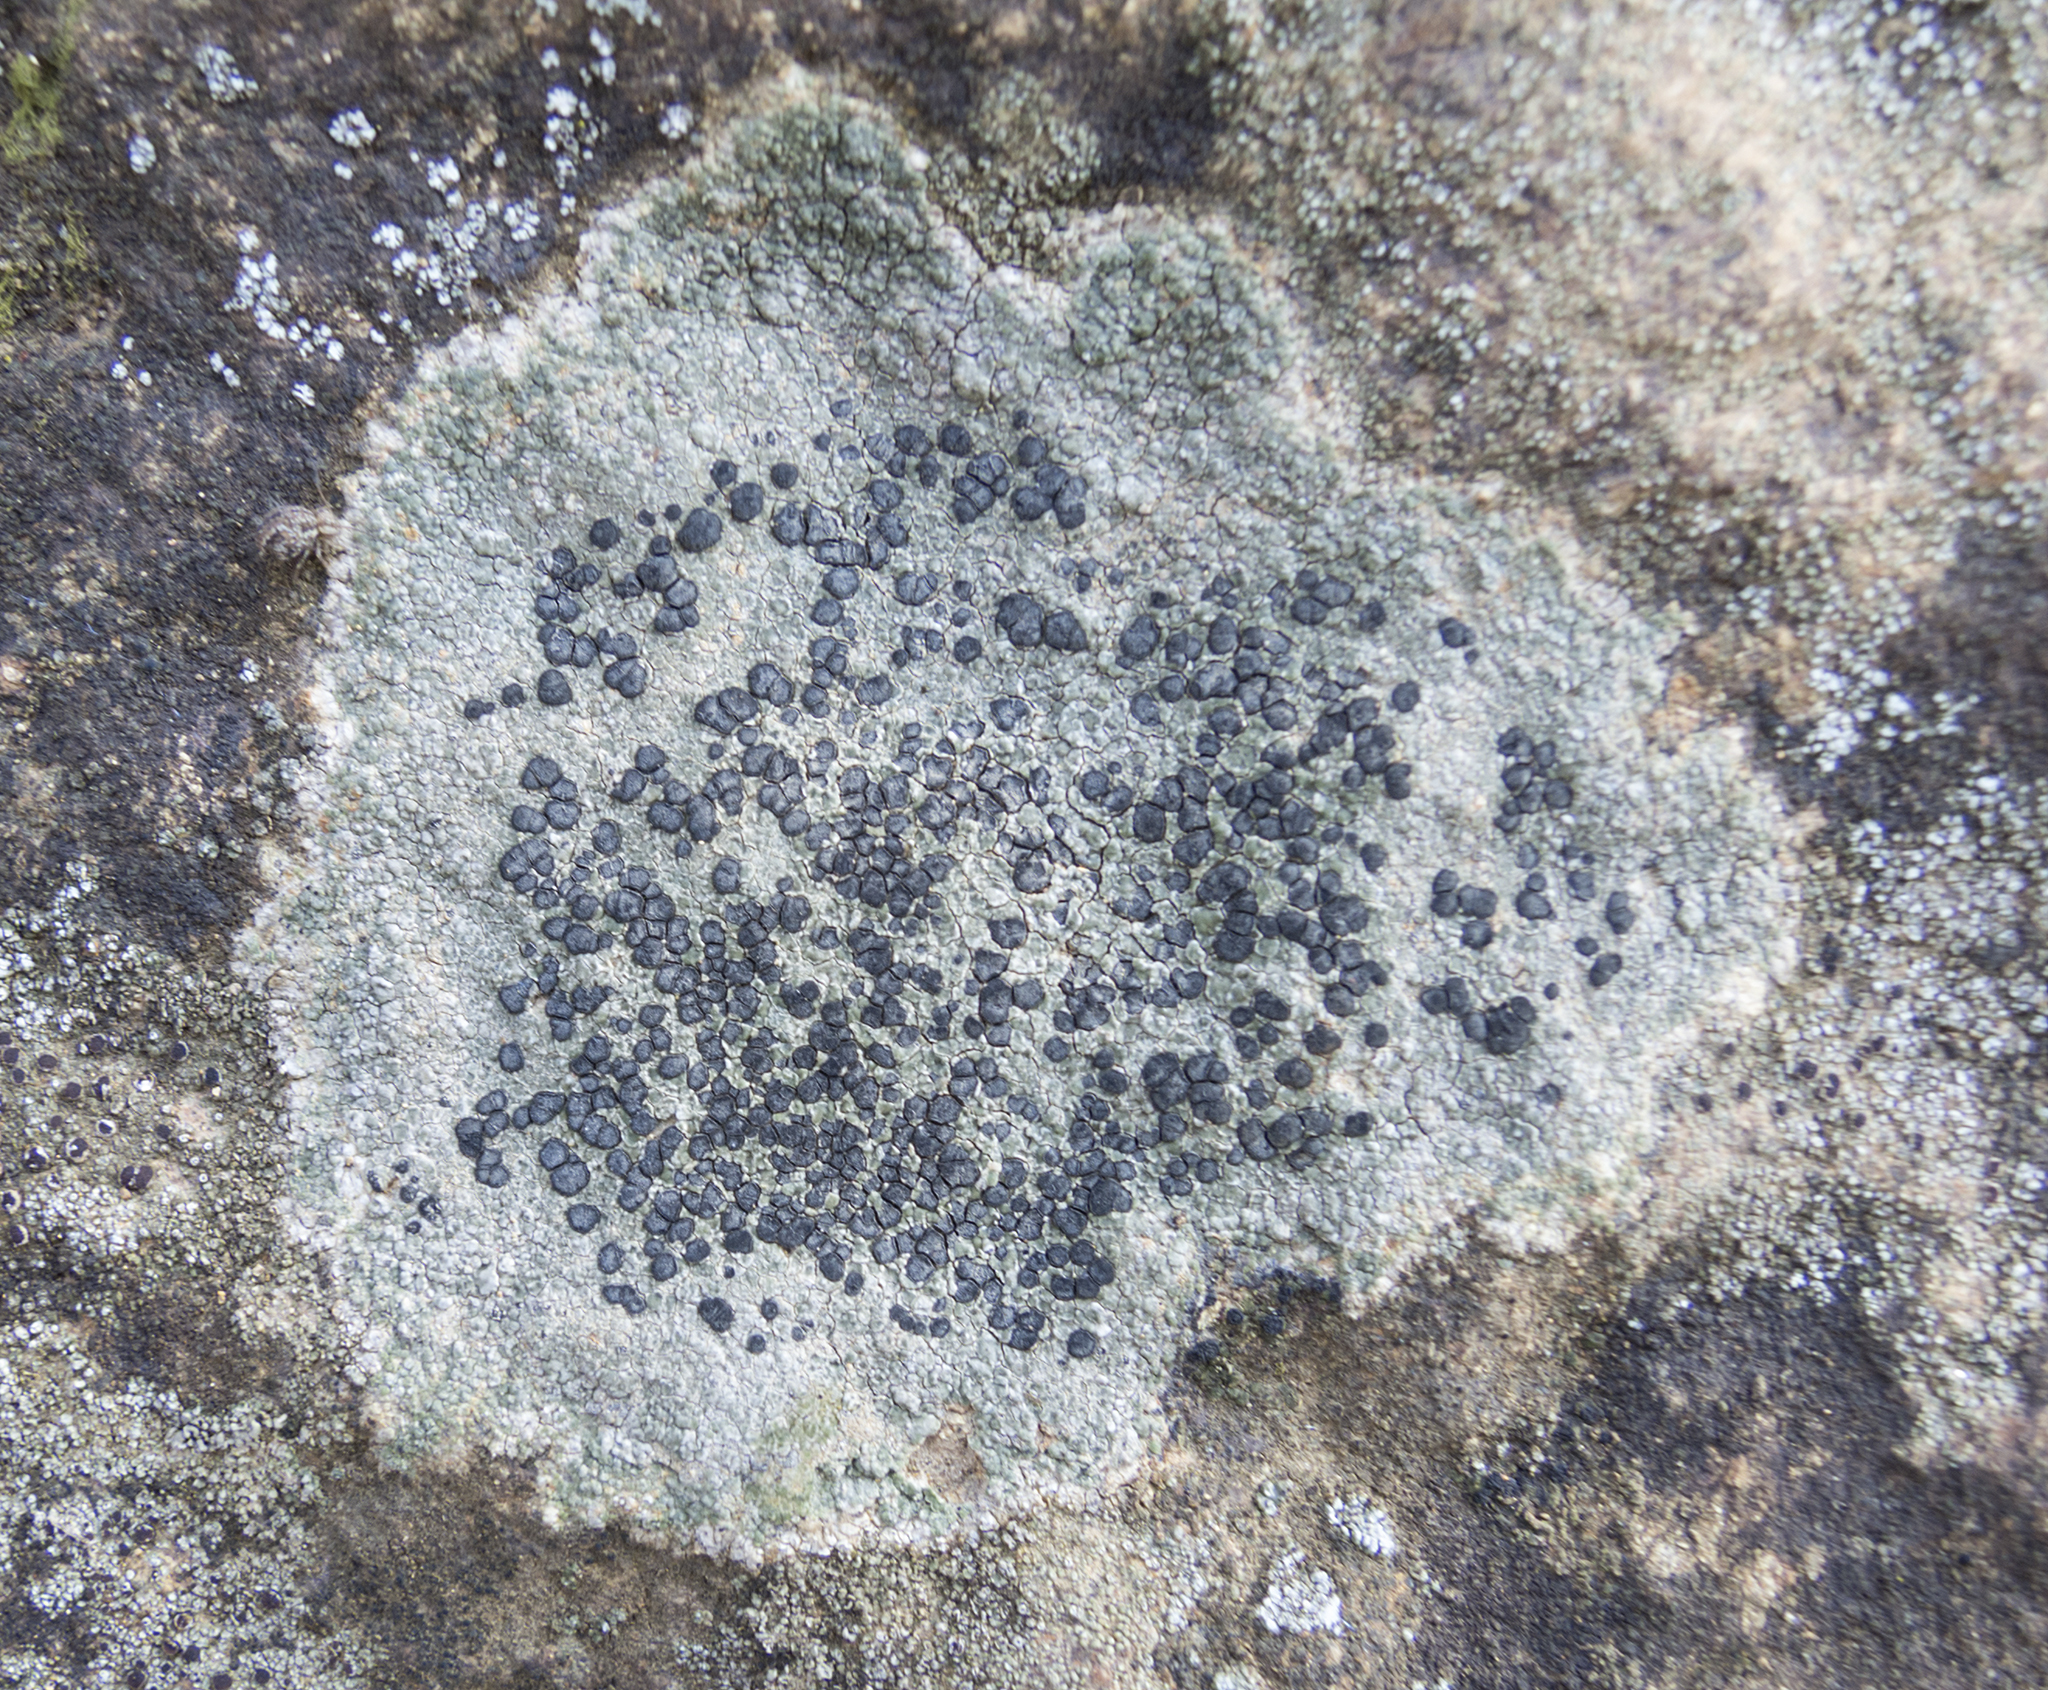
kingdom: Fungi
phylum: Ascomycota
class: Lecanoromycetes
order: Lecideales
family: Lecideaceae
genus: Porpidia
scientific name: Porpidia crustulata
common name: Concentric boulder lichen
